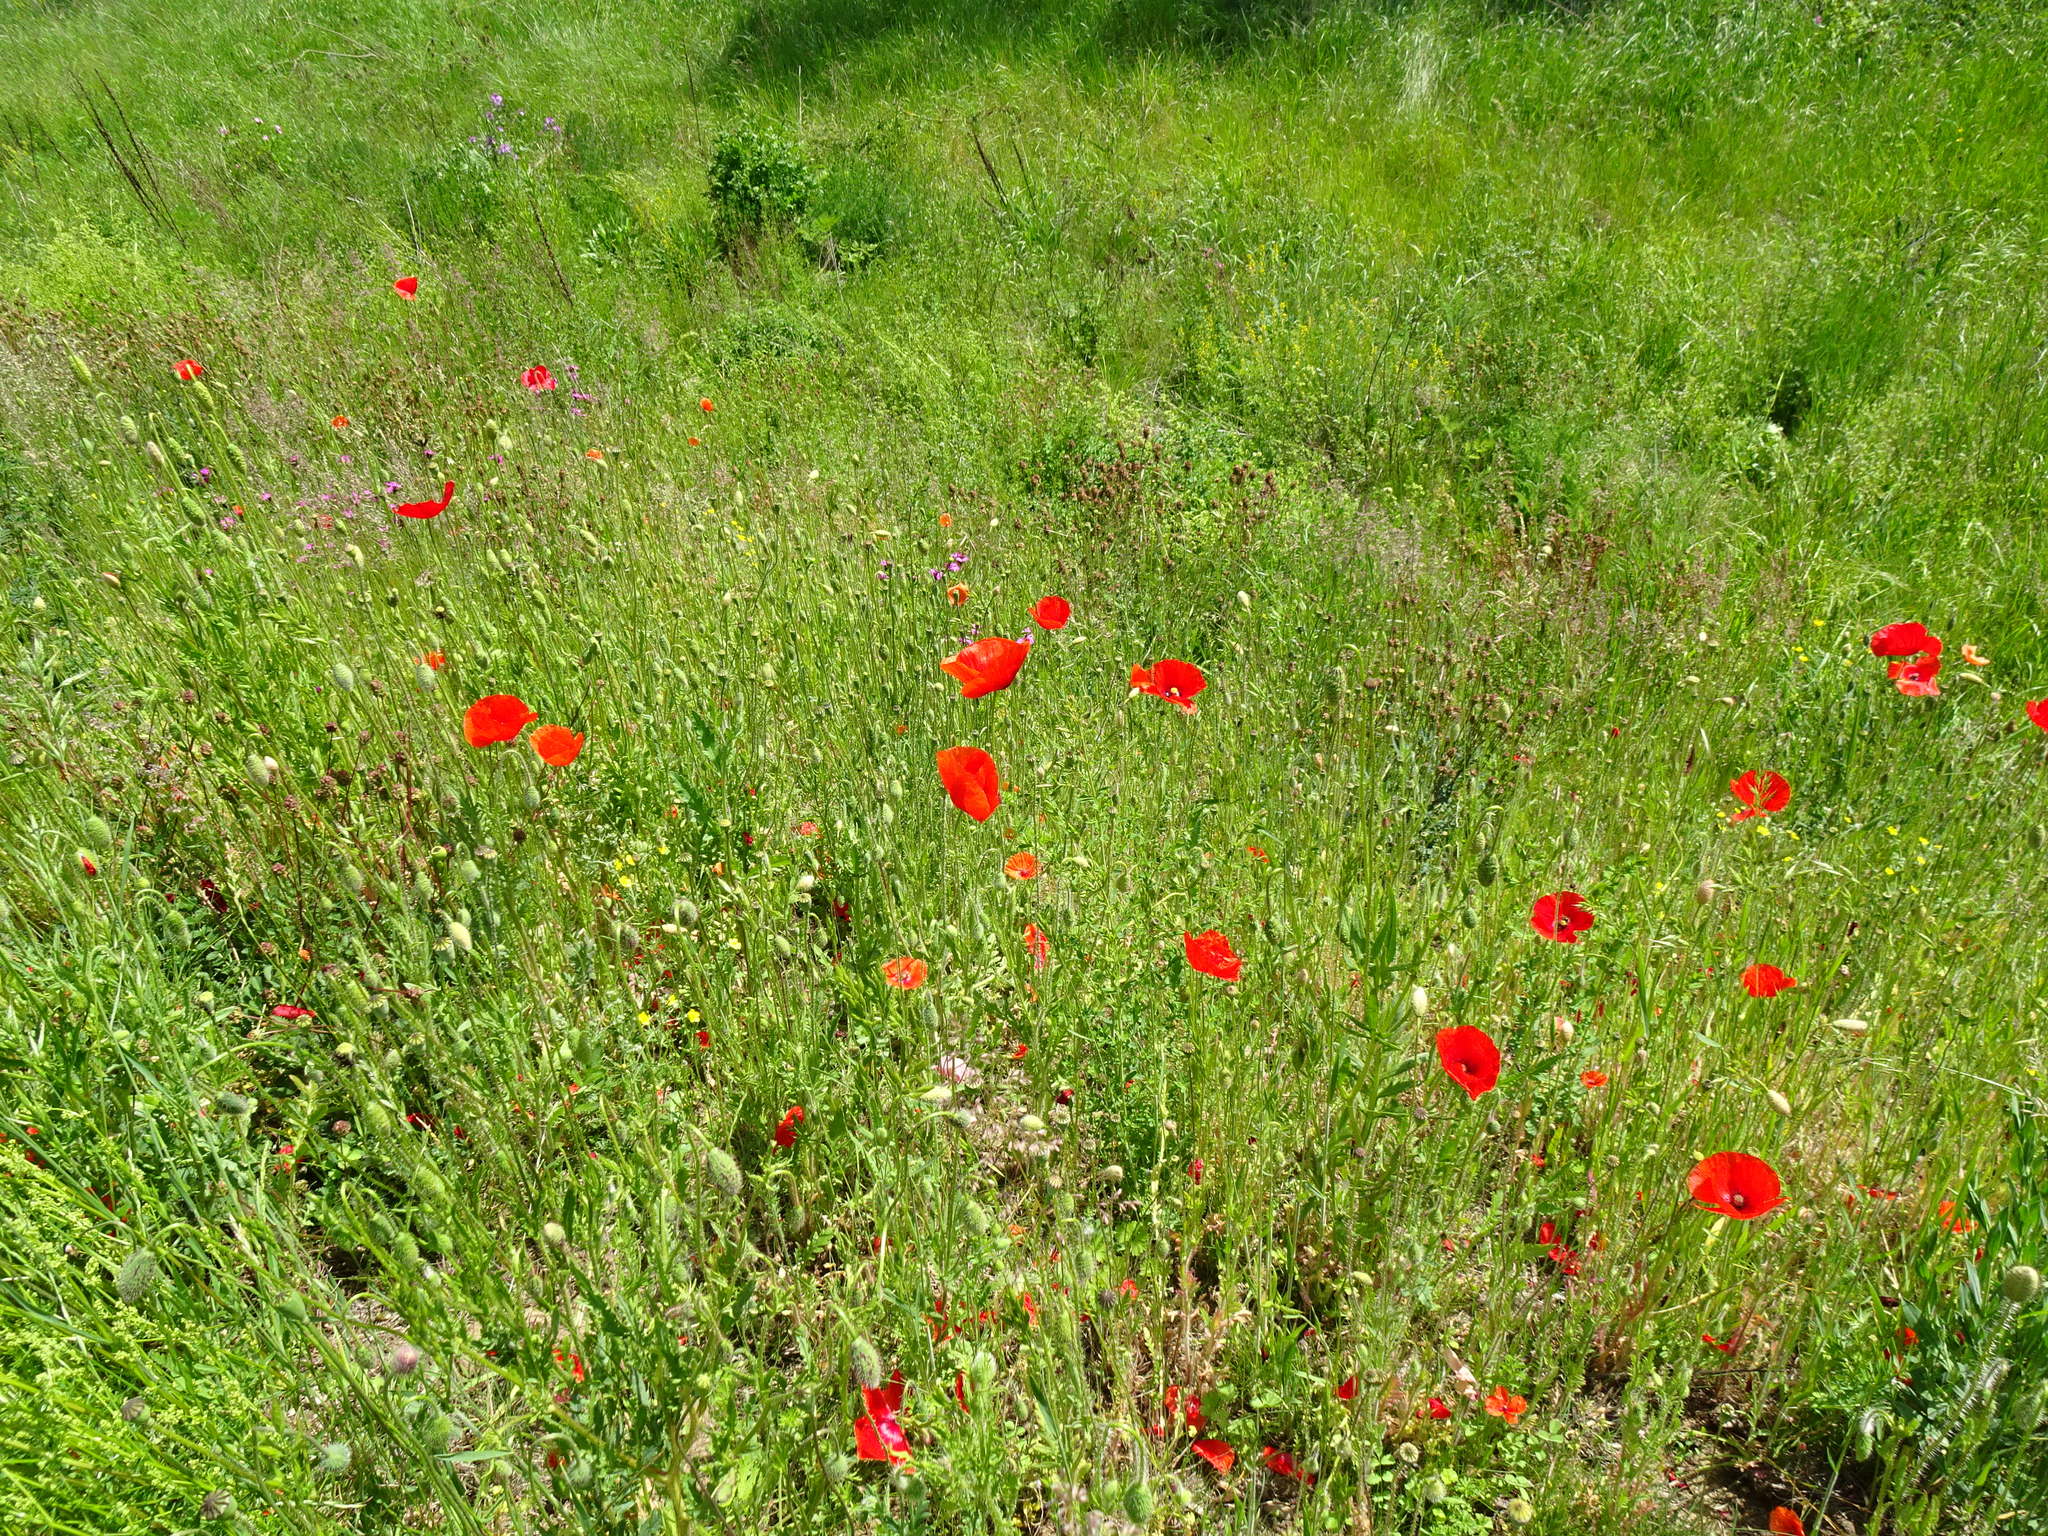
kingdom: Plantae
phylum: Tracheophyta
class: Magnoliopsida
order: Ranunculales
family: Papaveraceae
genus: Papaver
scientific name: Papaver rhoeas
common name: Corn poppy
